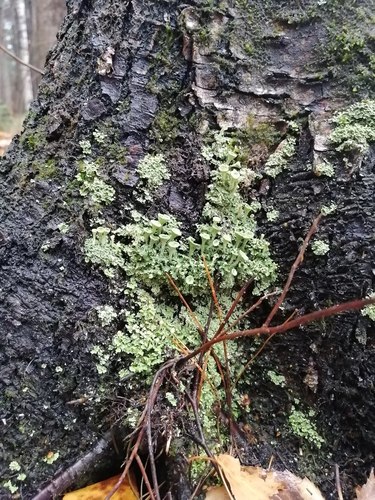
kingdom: Fungi
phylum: Ascomycota
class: Lecanoromycetes
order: Lecanorales
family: Cladoniaceae
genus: Cladonia
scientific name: Cladonia fimbriata
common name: Powdered trumpet lichen
